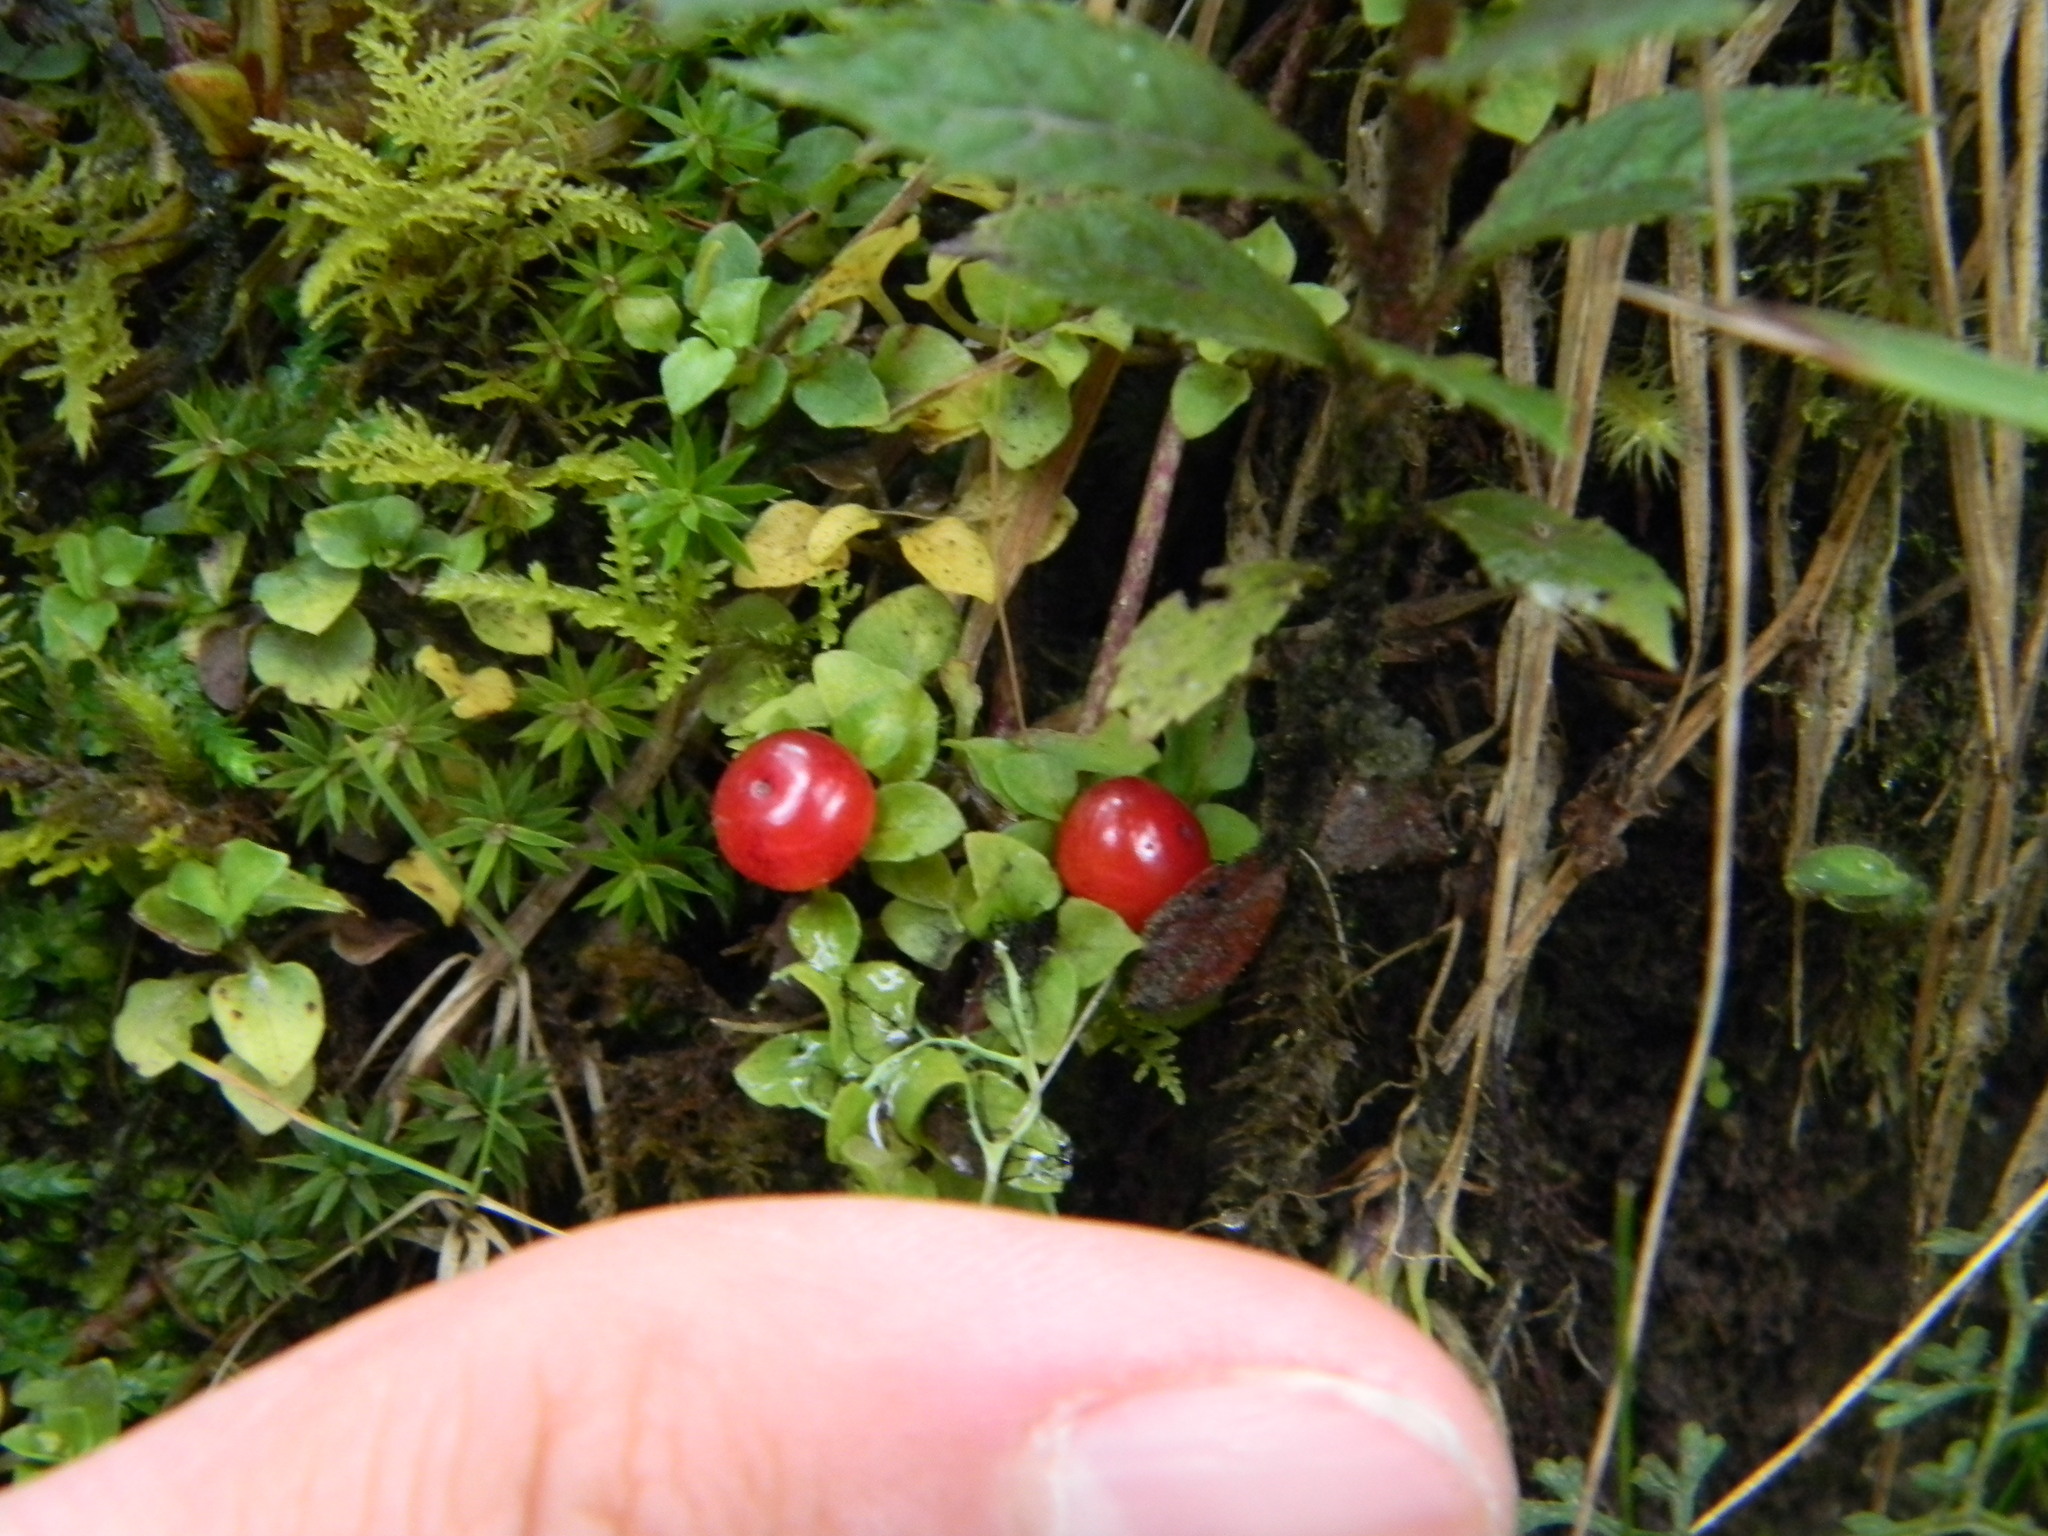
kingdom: Plantae
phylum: Tracheophyta
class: Magnoliopsida
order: Gentianales
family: Rubiaceae
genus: Nertera
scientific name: Nertera granadensis
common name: Beadplant
